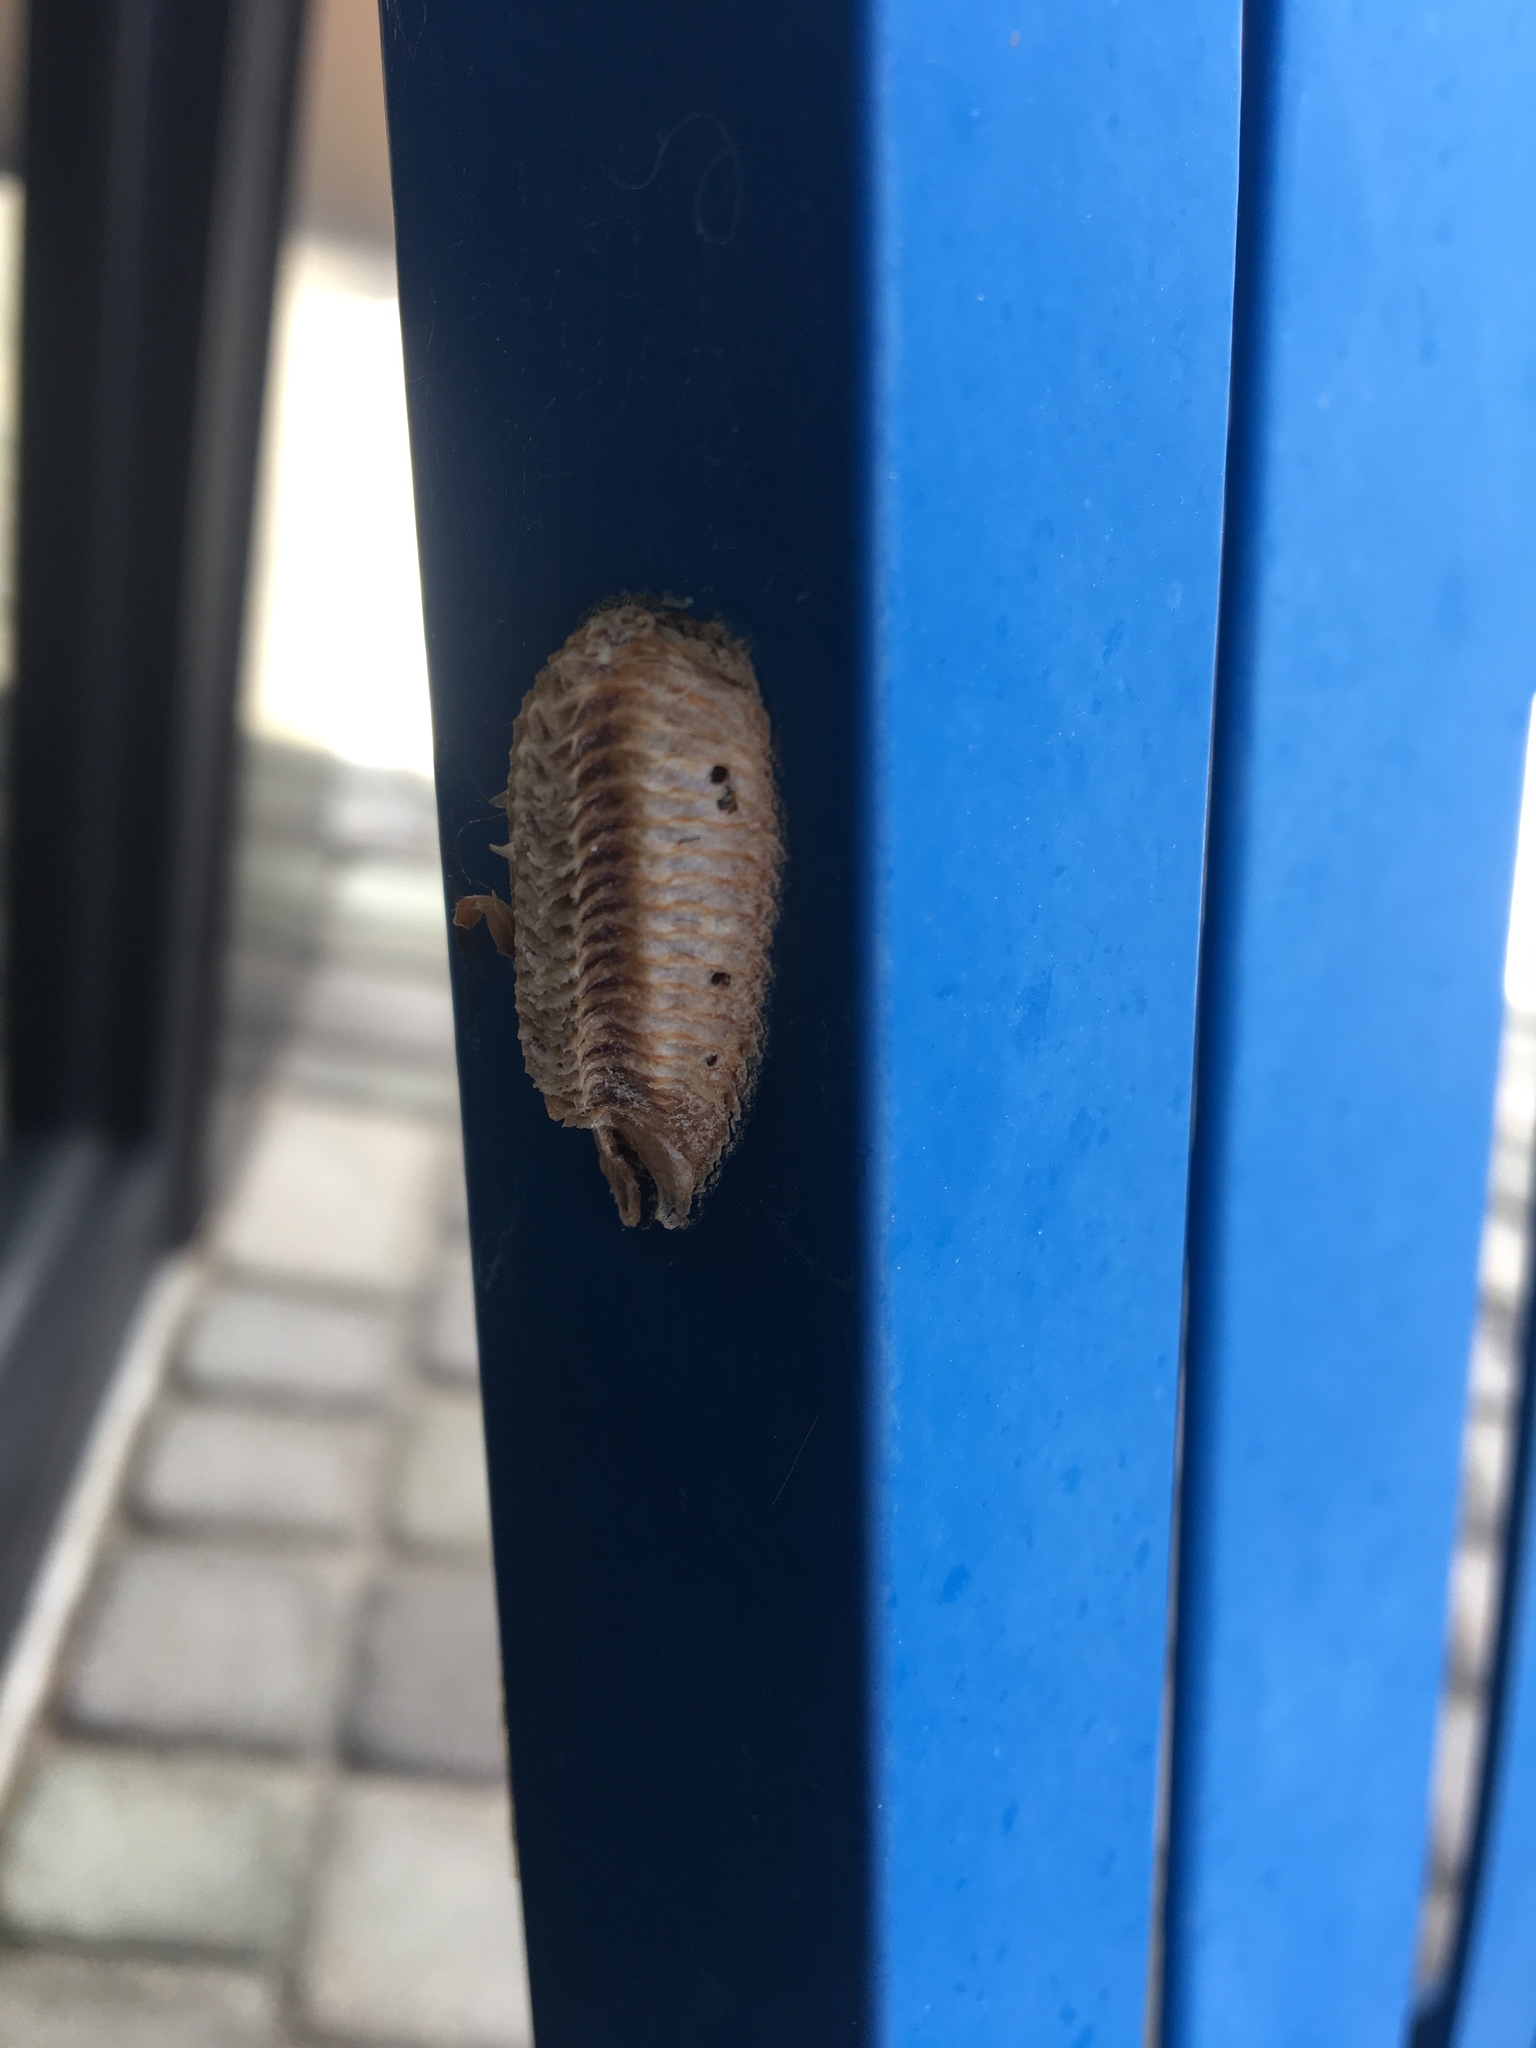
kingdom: Animalia
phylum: Arthropoda
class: Insecta
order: Mantodea
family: Mantidae
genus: Stagmomantis
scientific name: Stagmomantis carolina
